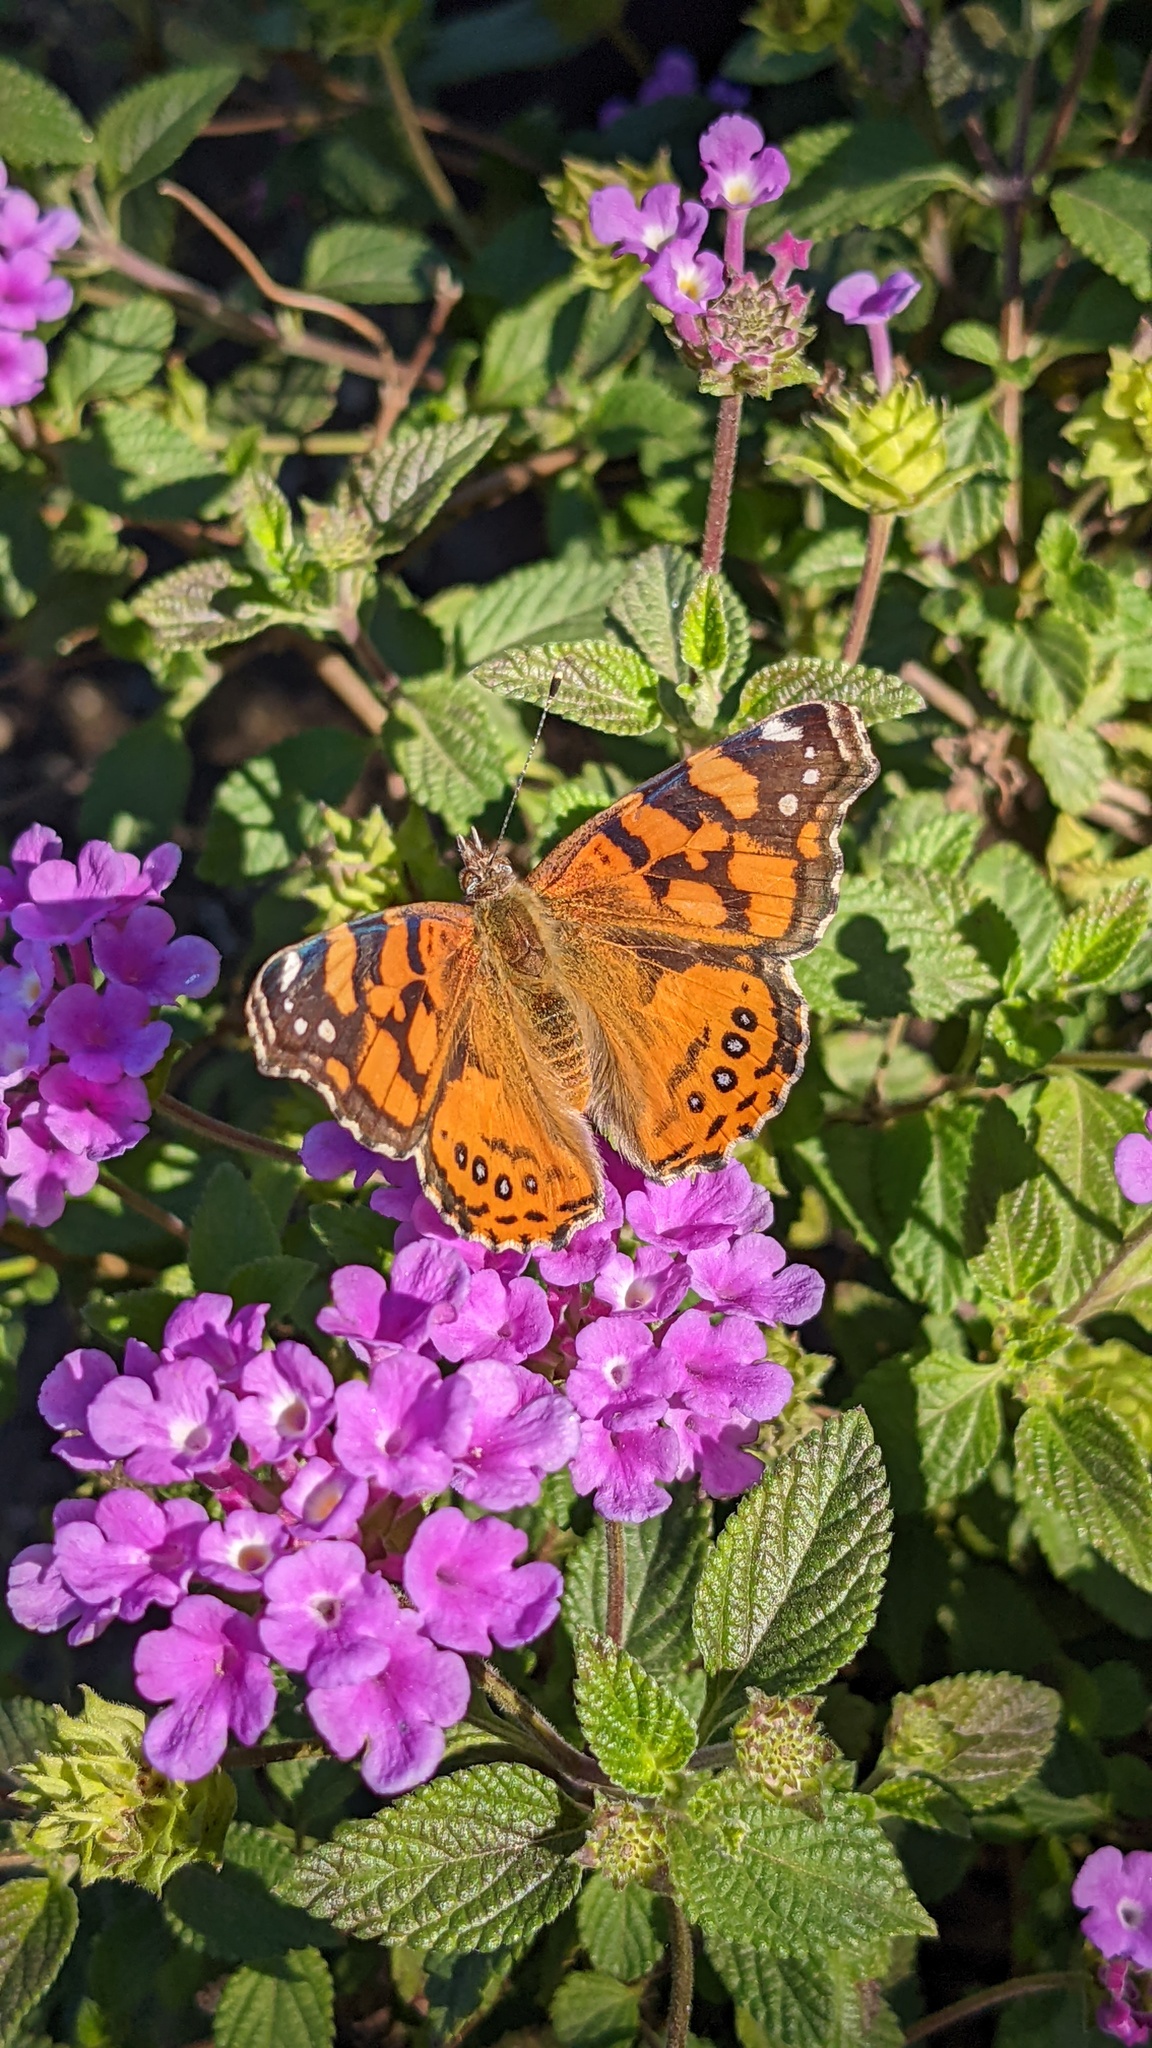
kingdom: Animalia
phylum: Arthropoda
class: Insecta
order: Lepidoptera
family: Nymphalidae
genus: Vanessa
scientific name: Vanessa annabella
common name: West coast lady
